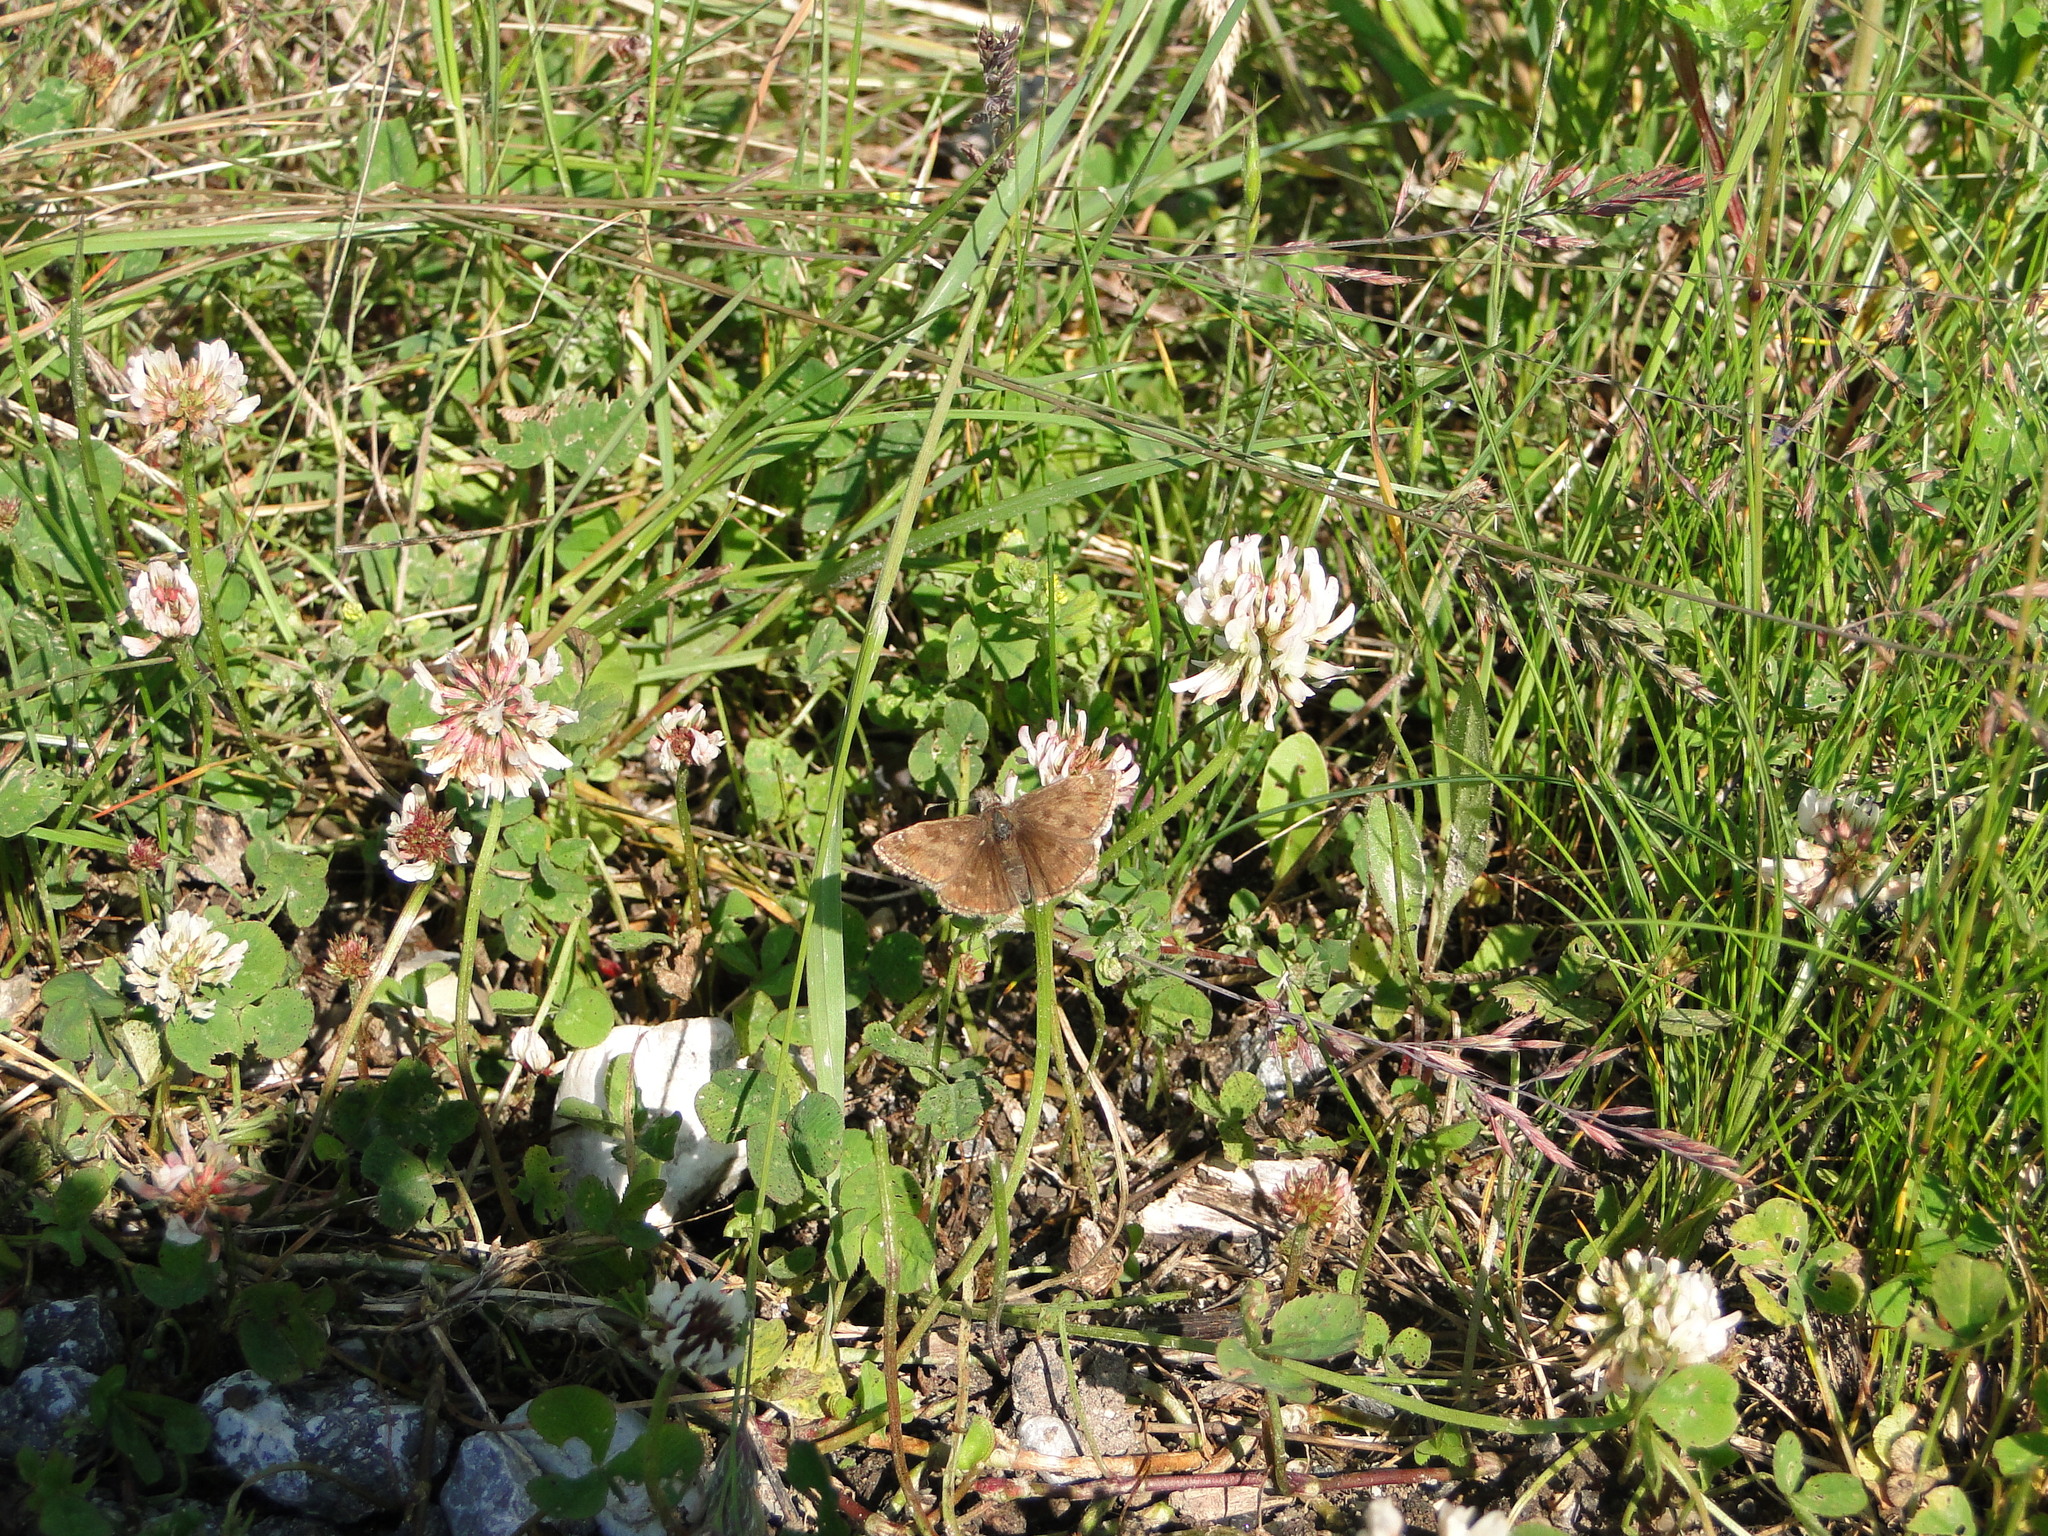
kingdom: Animalia
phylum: Arthropoda
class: Insecta
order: Lepidoptera
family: Hesperiidae
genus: Erynnis
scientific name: Erynnis tages
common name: Dingy skipper
